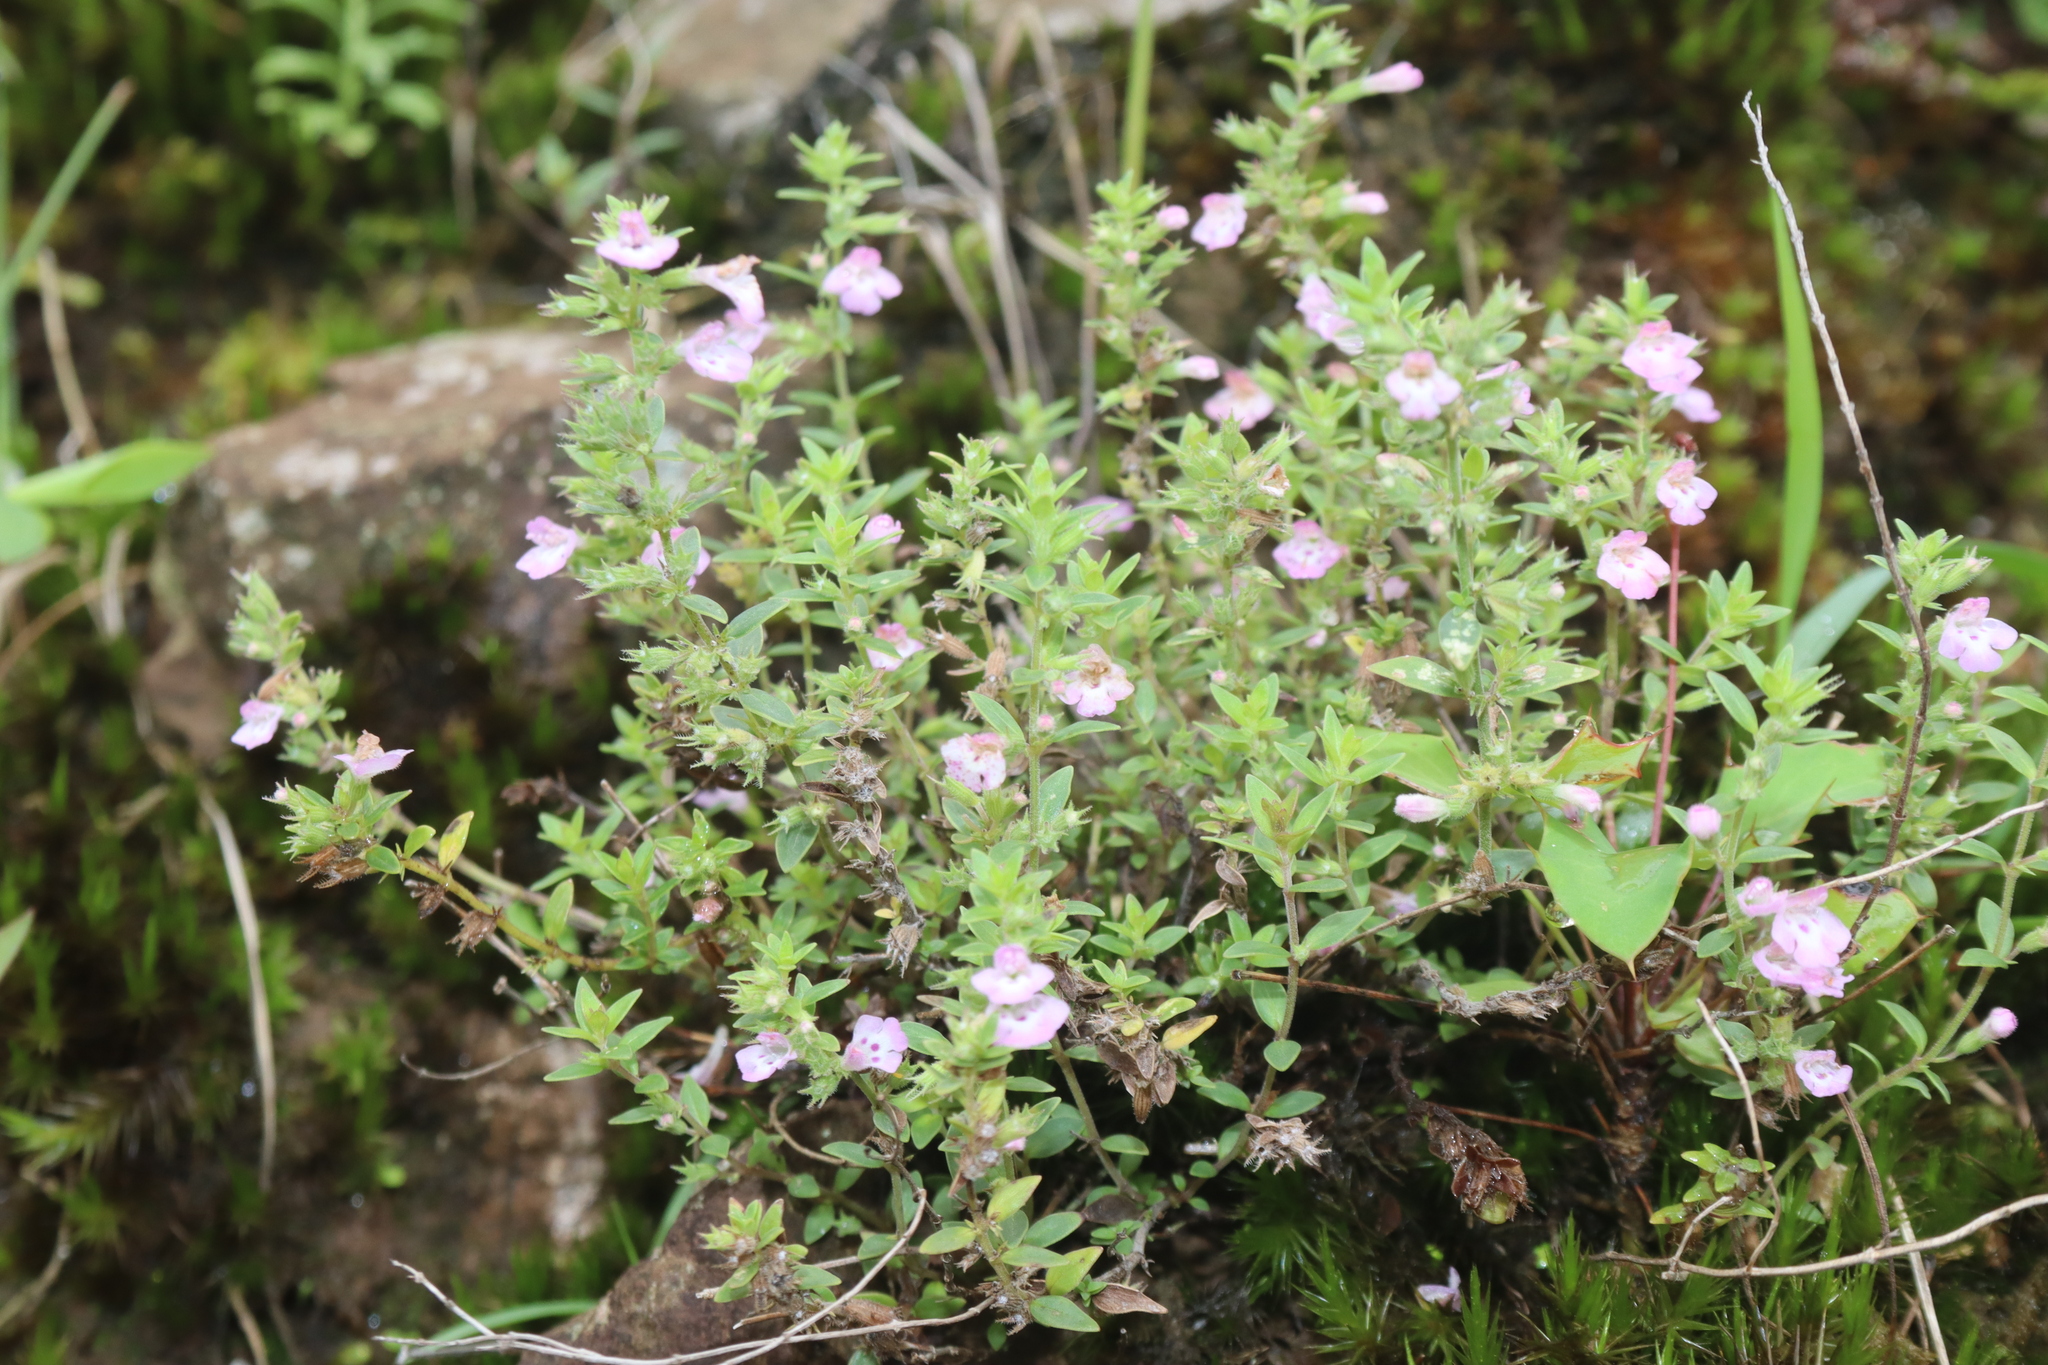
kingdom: Plantae
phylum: Tracheophyta
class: Magnoliopsida
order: Lamiales
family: Lamiaceae
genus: Micromeria
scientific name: Micromeria biflora
